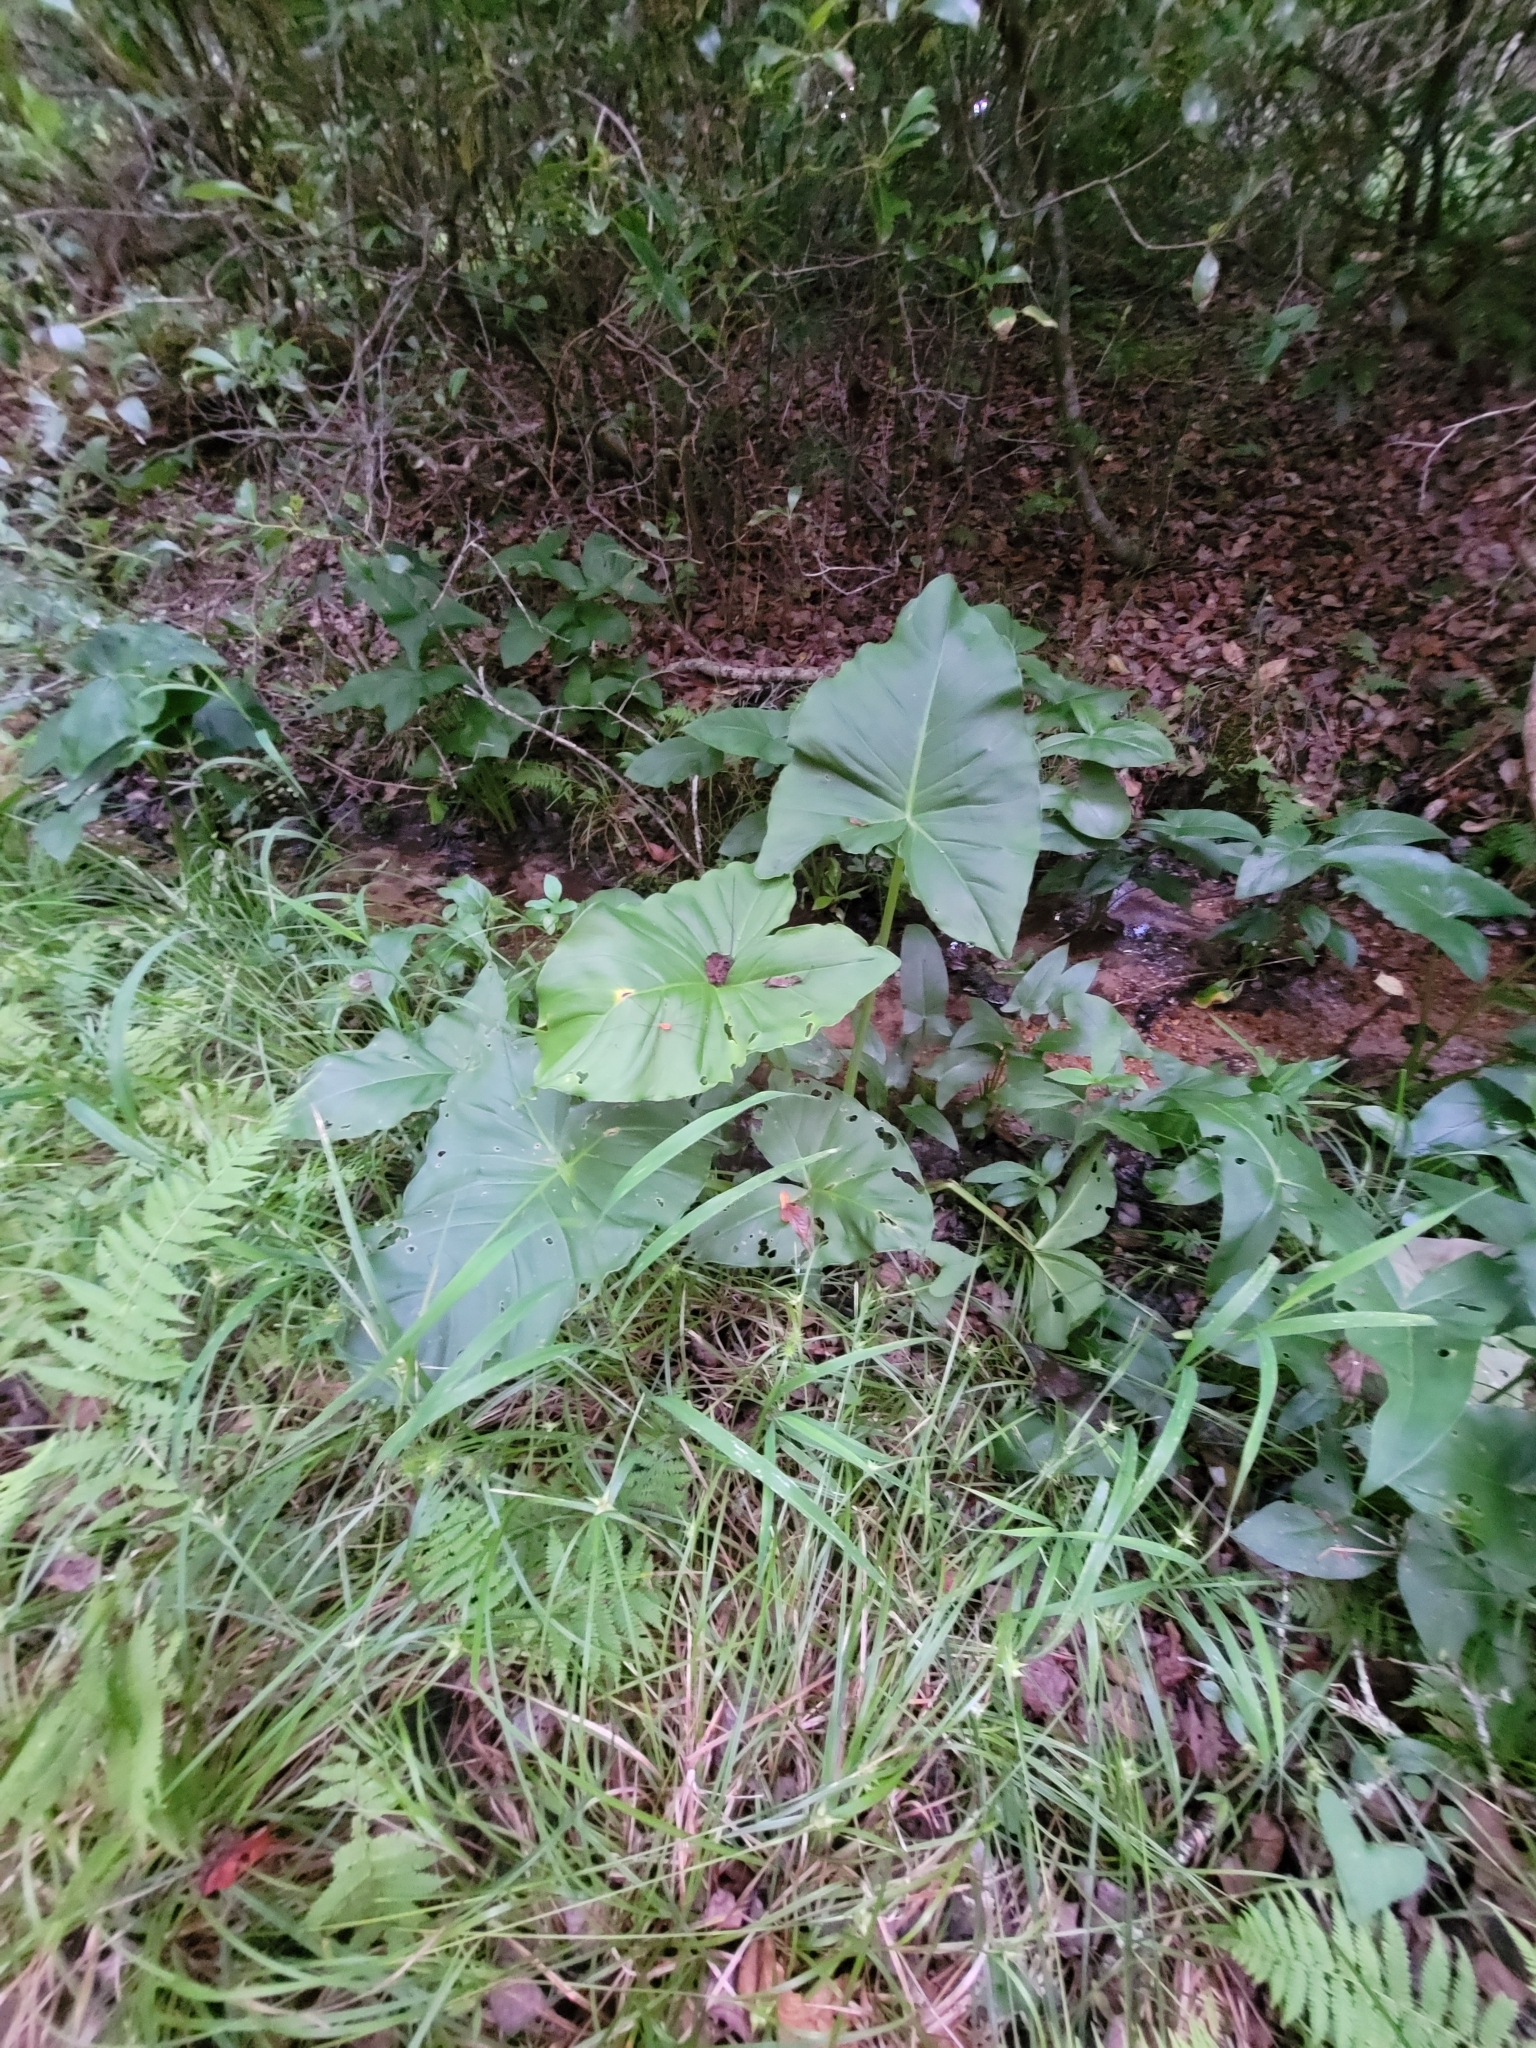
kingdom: Plantae
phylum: Tracheophyta
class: Liliopsida
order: Alismatales
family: Araceae
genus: Peltandra
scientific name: Peltandra virginica
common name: Arrow arum
